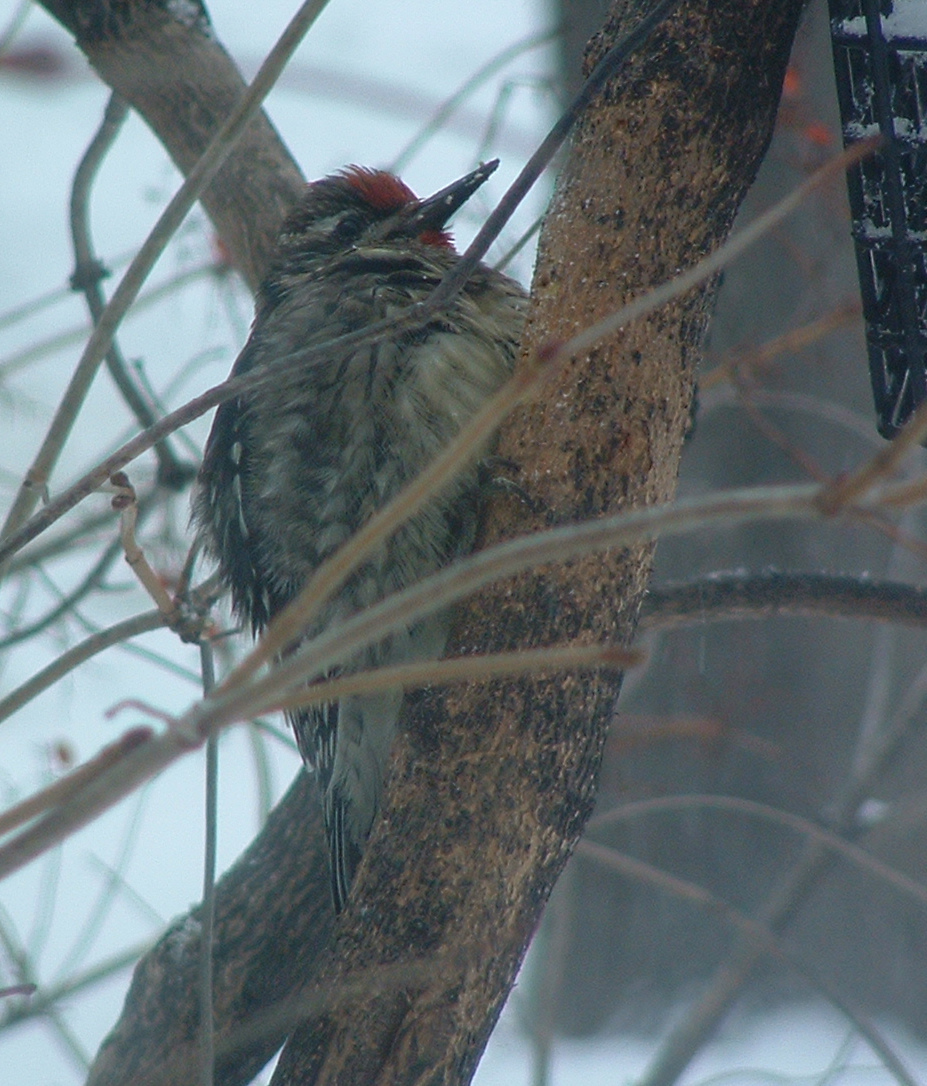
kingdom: Animalia
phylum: Chordata
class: Aves
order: Piciformes
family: Picidae
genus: Sphyrapicus
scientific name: Sphyrapicus varius
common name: Yellow-bellied sapsucker
